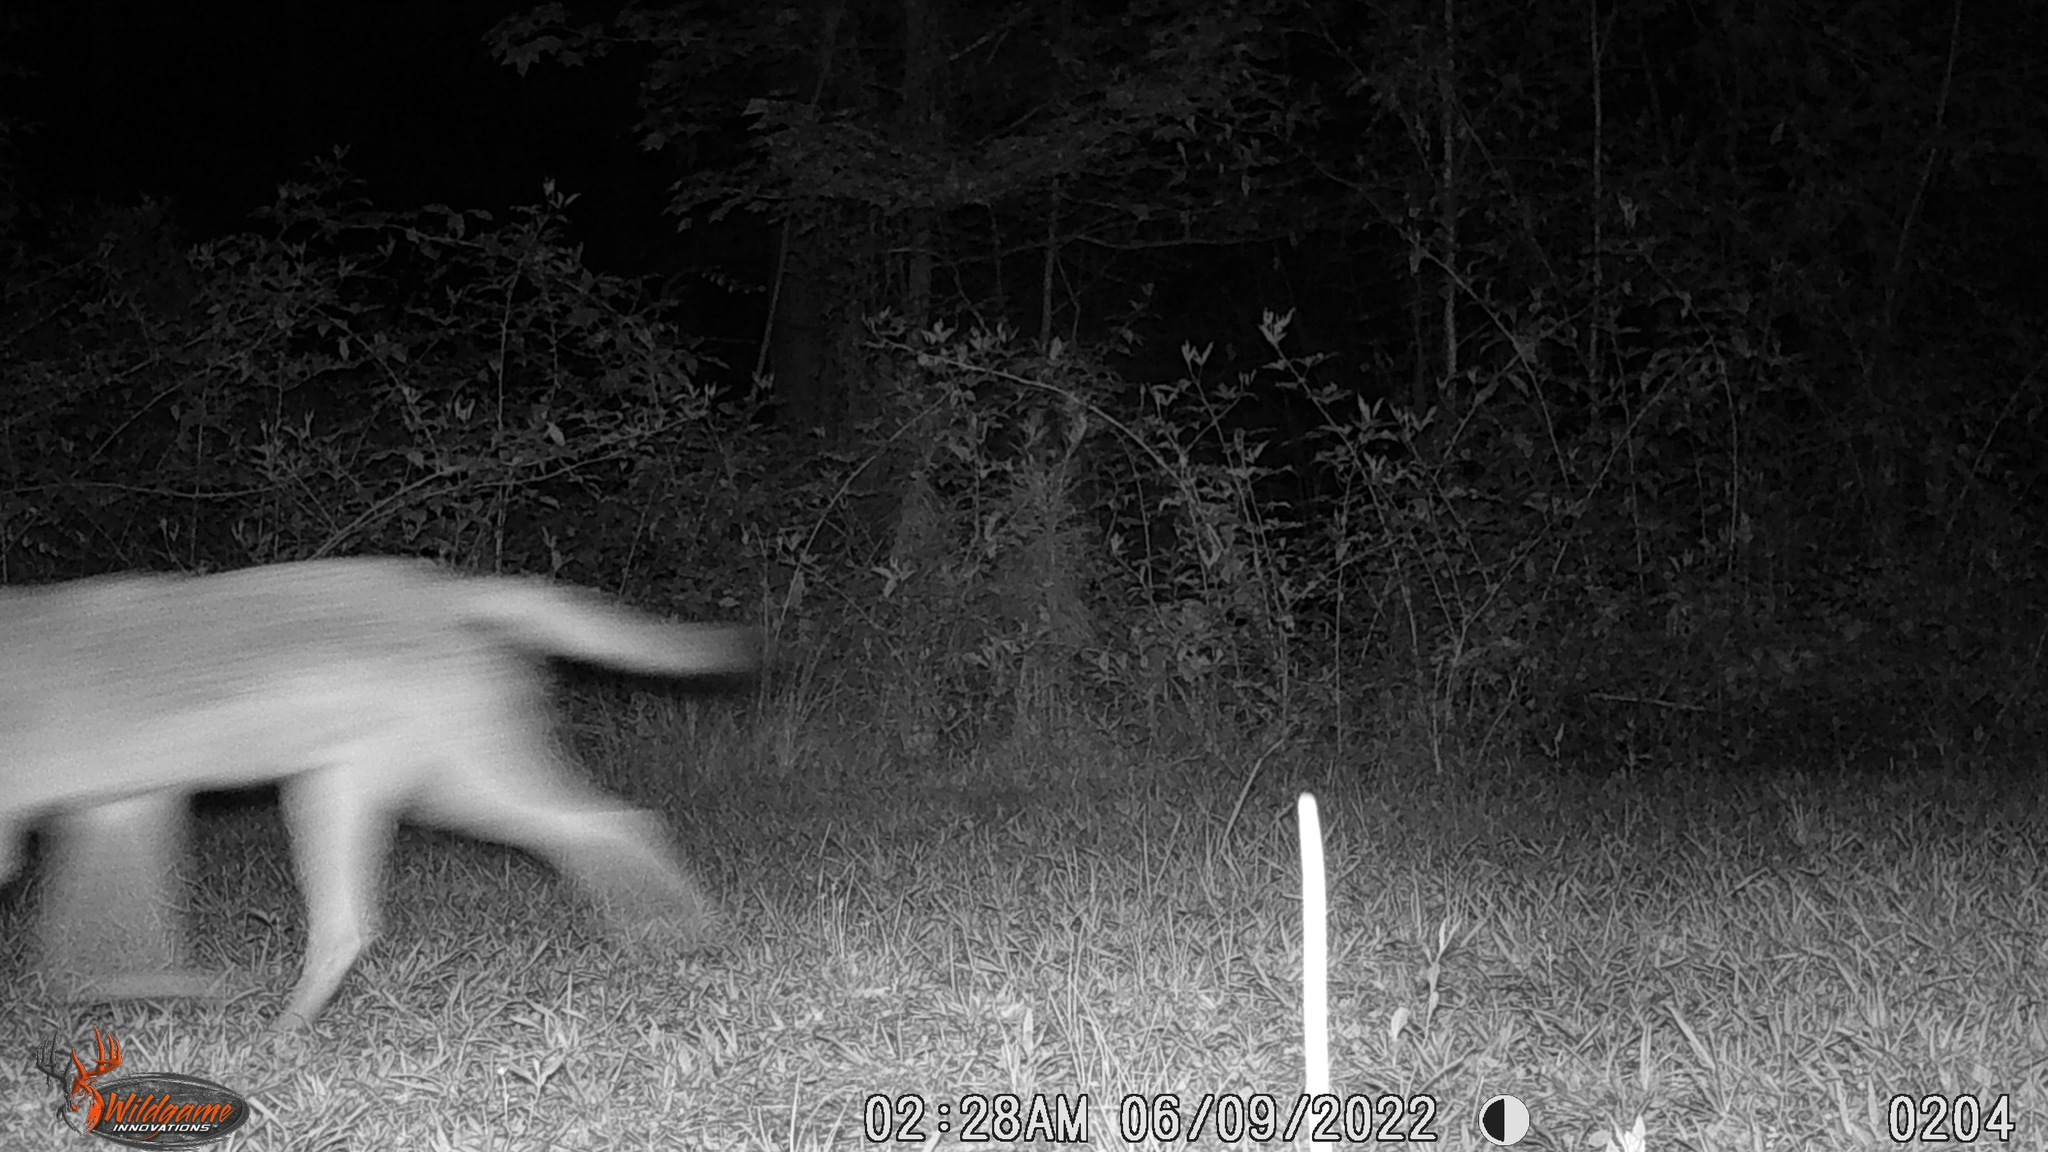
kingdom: Animalia
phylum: Chordata
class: Mammalia
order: Carnivora
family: Canidae
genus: Canis
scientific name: Canis latrans
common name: Coyote
